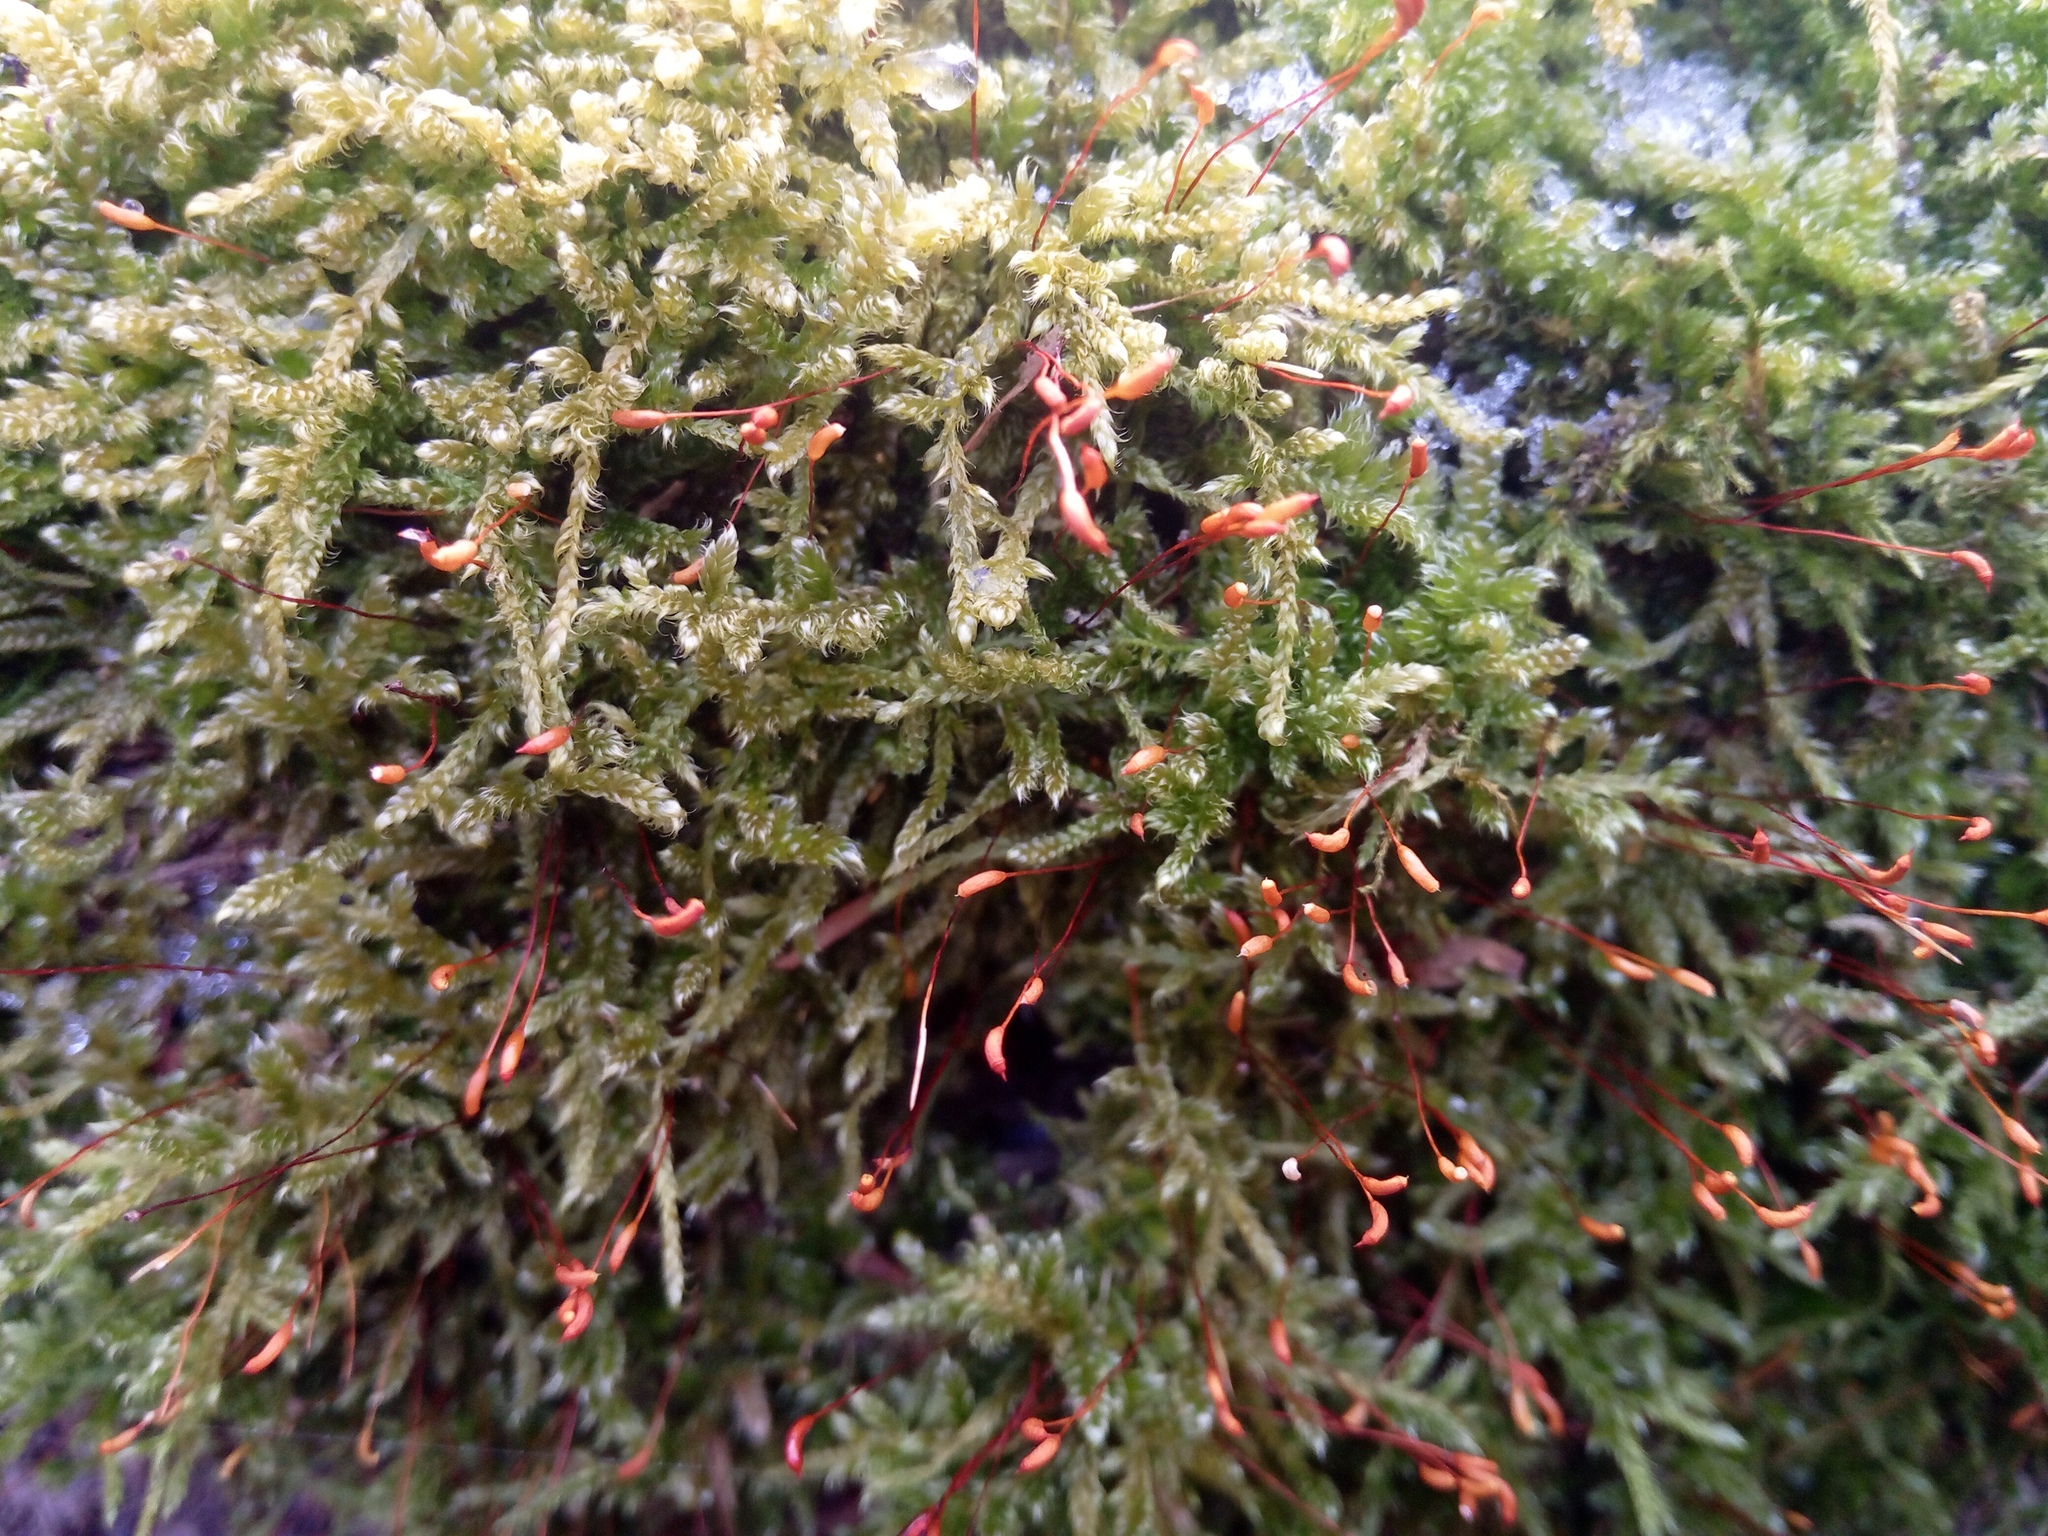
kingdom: Plantae
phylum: Bryophyta
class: Bryopsida
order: Hypnales
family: Hypnaceae
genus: Hypnum
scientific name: Hypnum cupressiforme
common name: Cypress-leaved plait-moss
